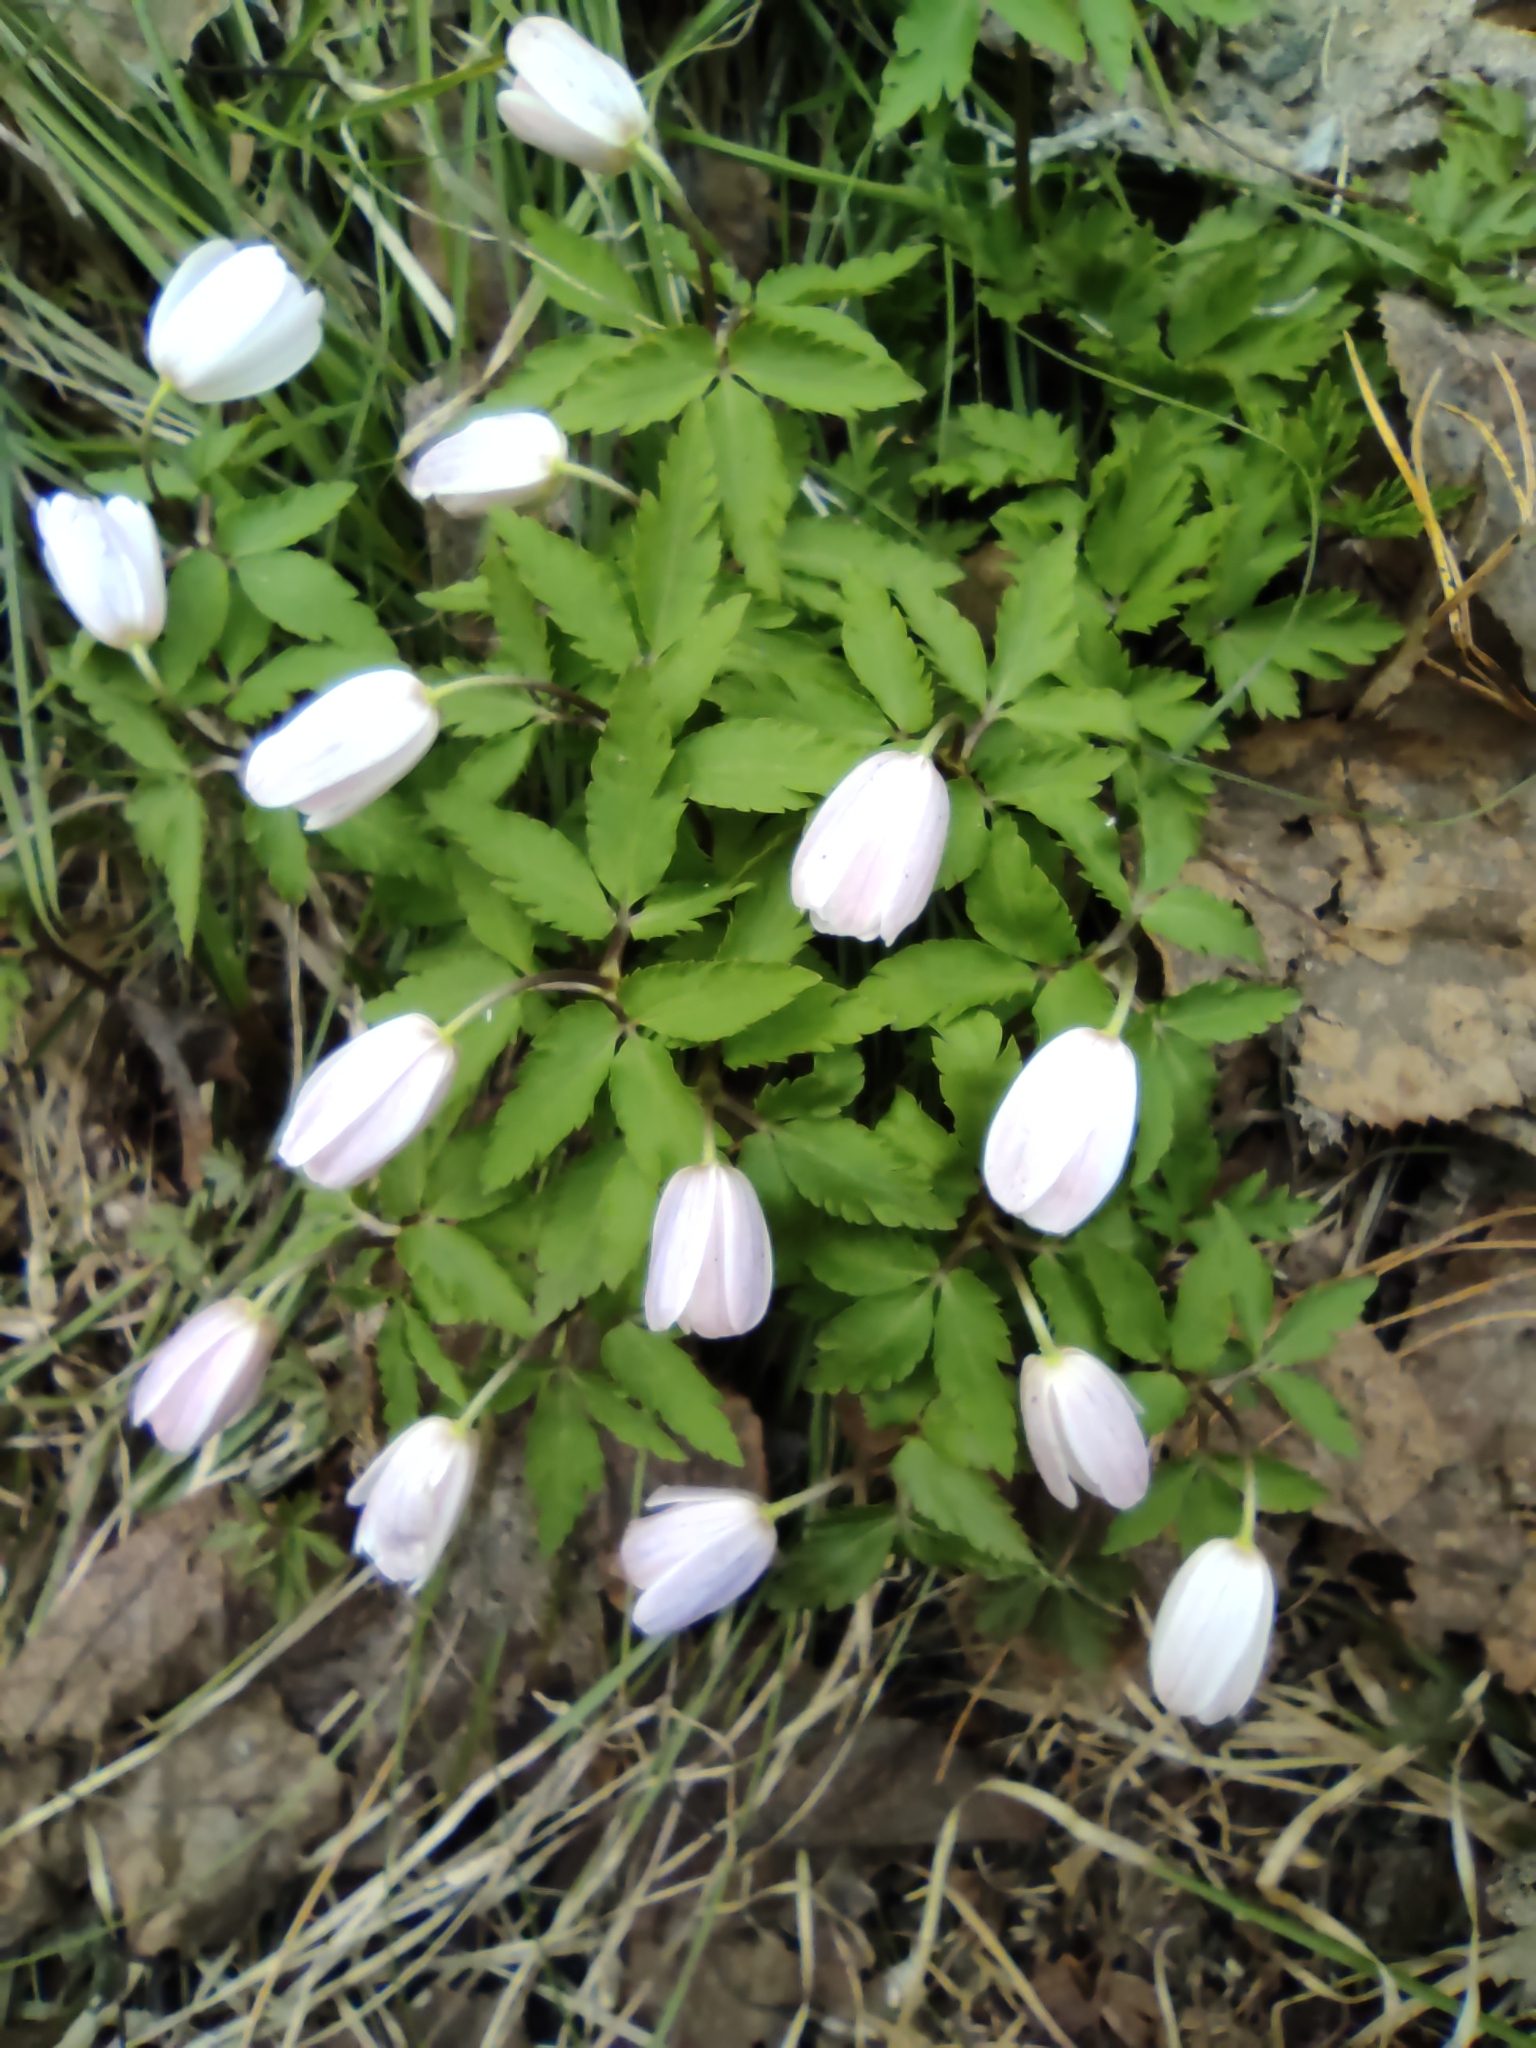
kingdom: Plantae
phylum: Tracheophyta
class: Magnoliopsida
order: Ranunculales
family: Ranunculaceae
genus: Anemone
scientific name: Anemone altaica
